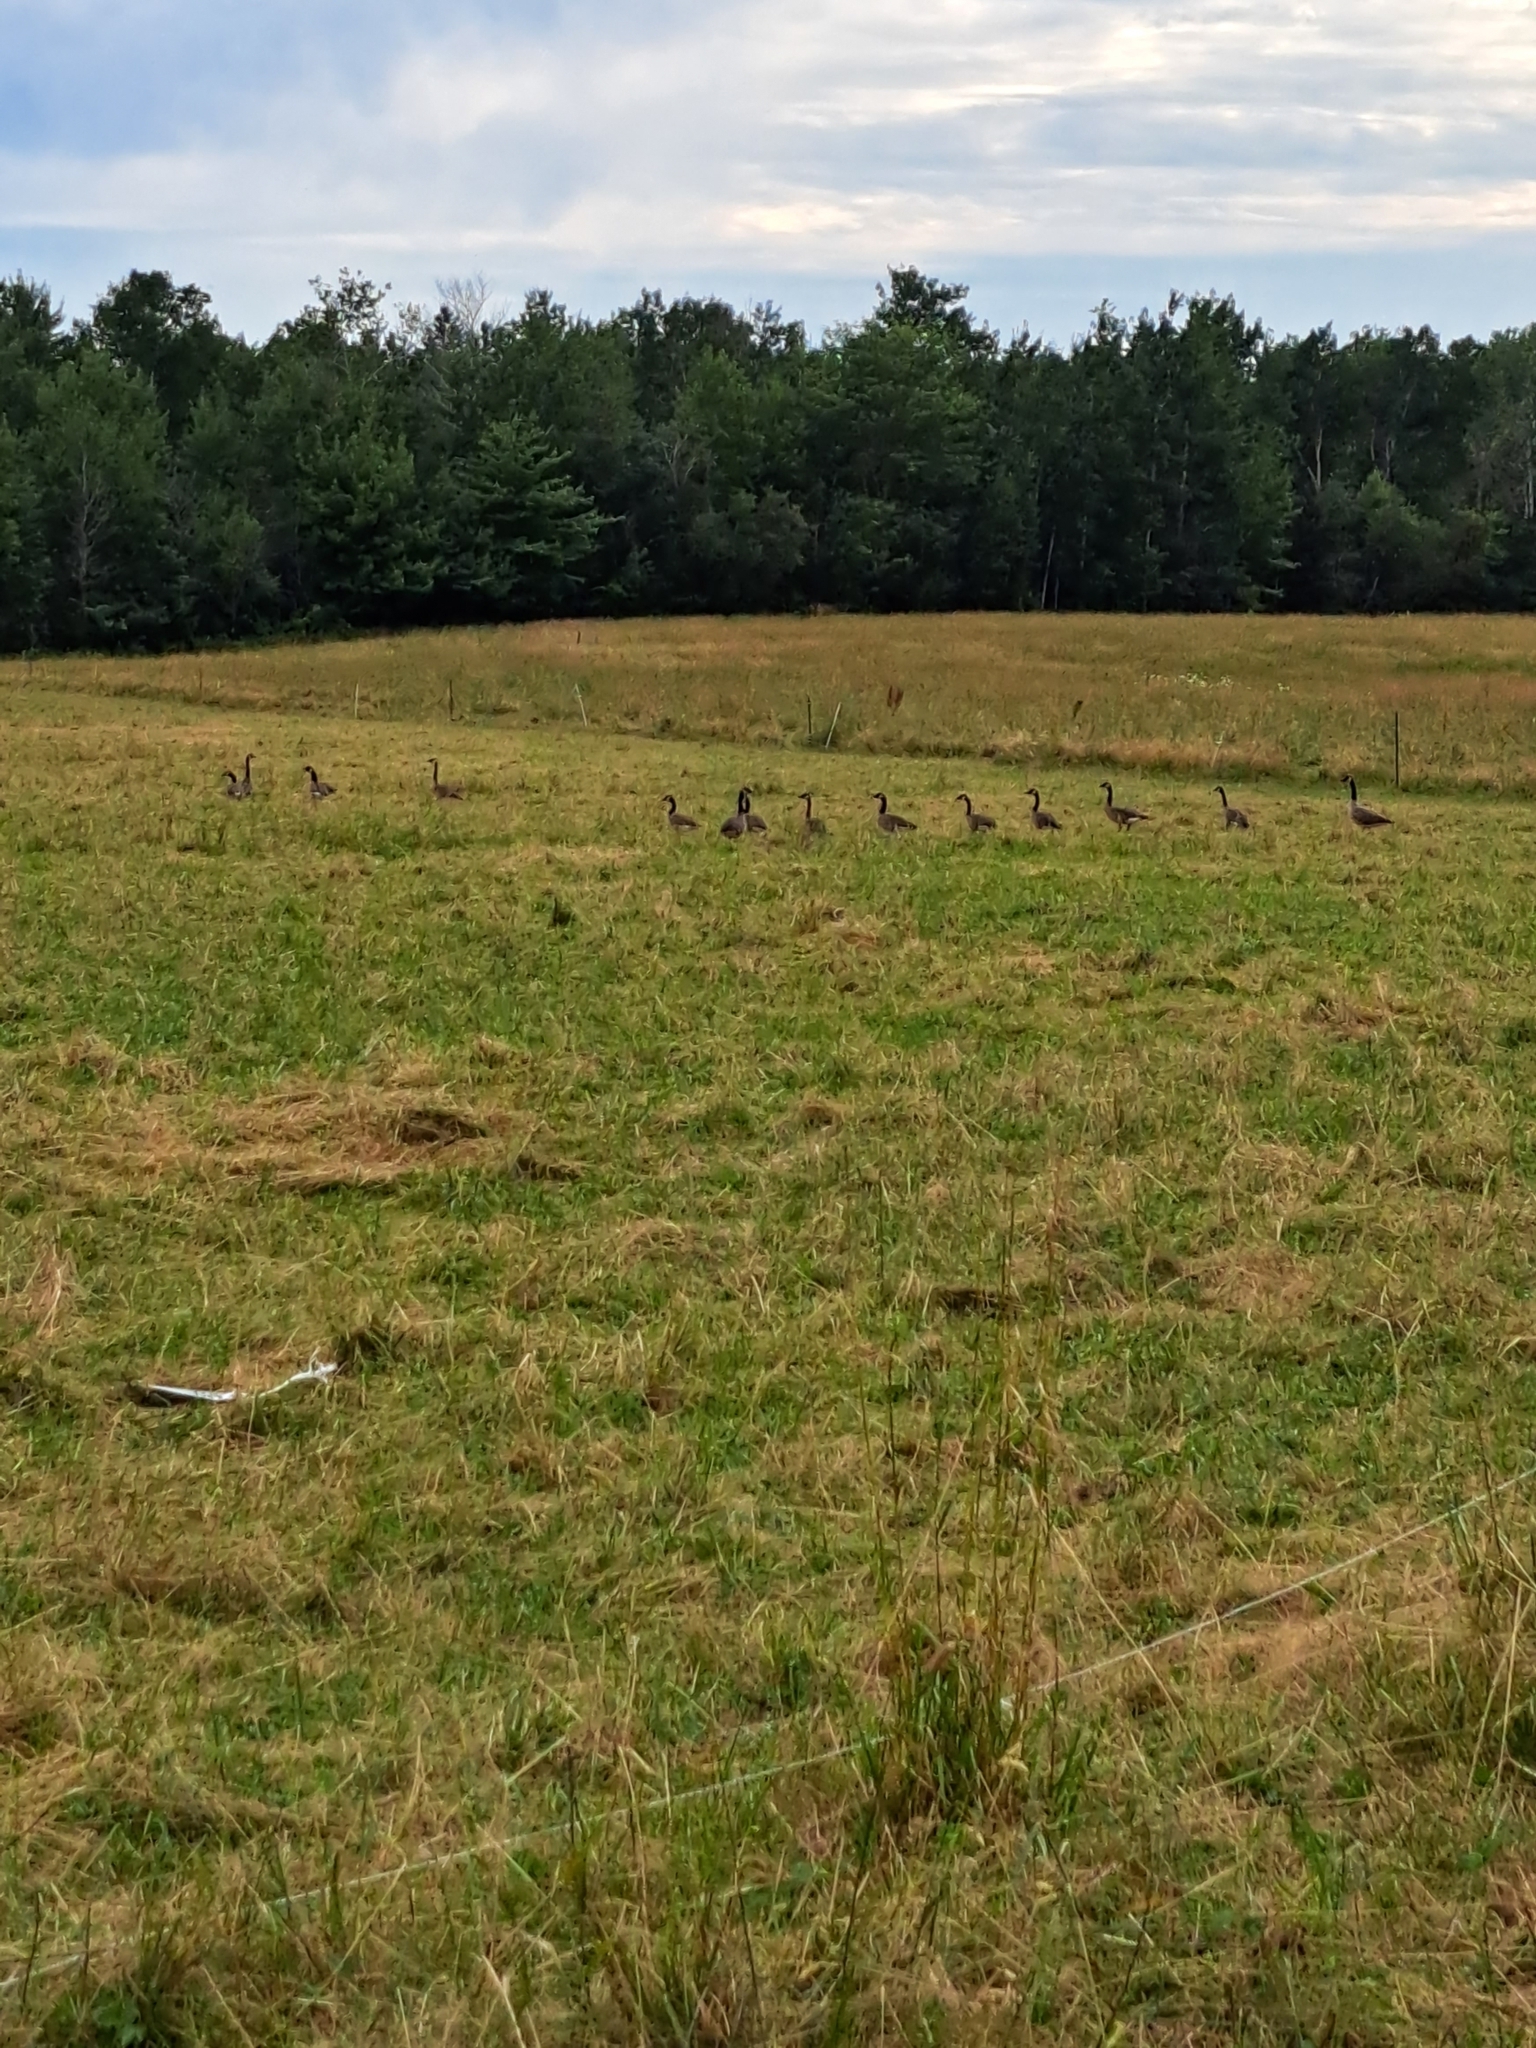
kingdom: Animalia
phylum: Chordata
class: Aves
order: Anseriformes
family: Anatidae
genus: Branta
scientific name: Branta canadensis
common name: Canada goose
